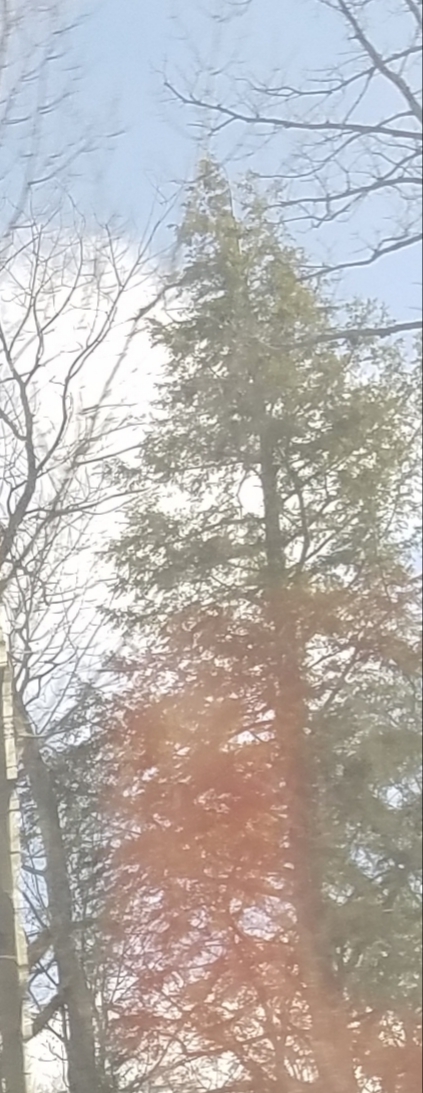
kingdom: Plantae
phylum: Tracheophyta
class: Pinopsida
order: Pinales
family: Pinaceae
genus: Tsuga
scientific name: Tsuga canadensis
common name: Eastern hemlock
